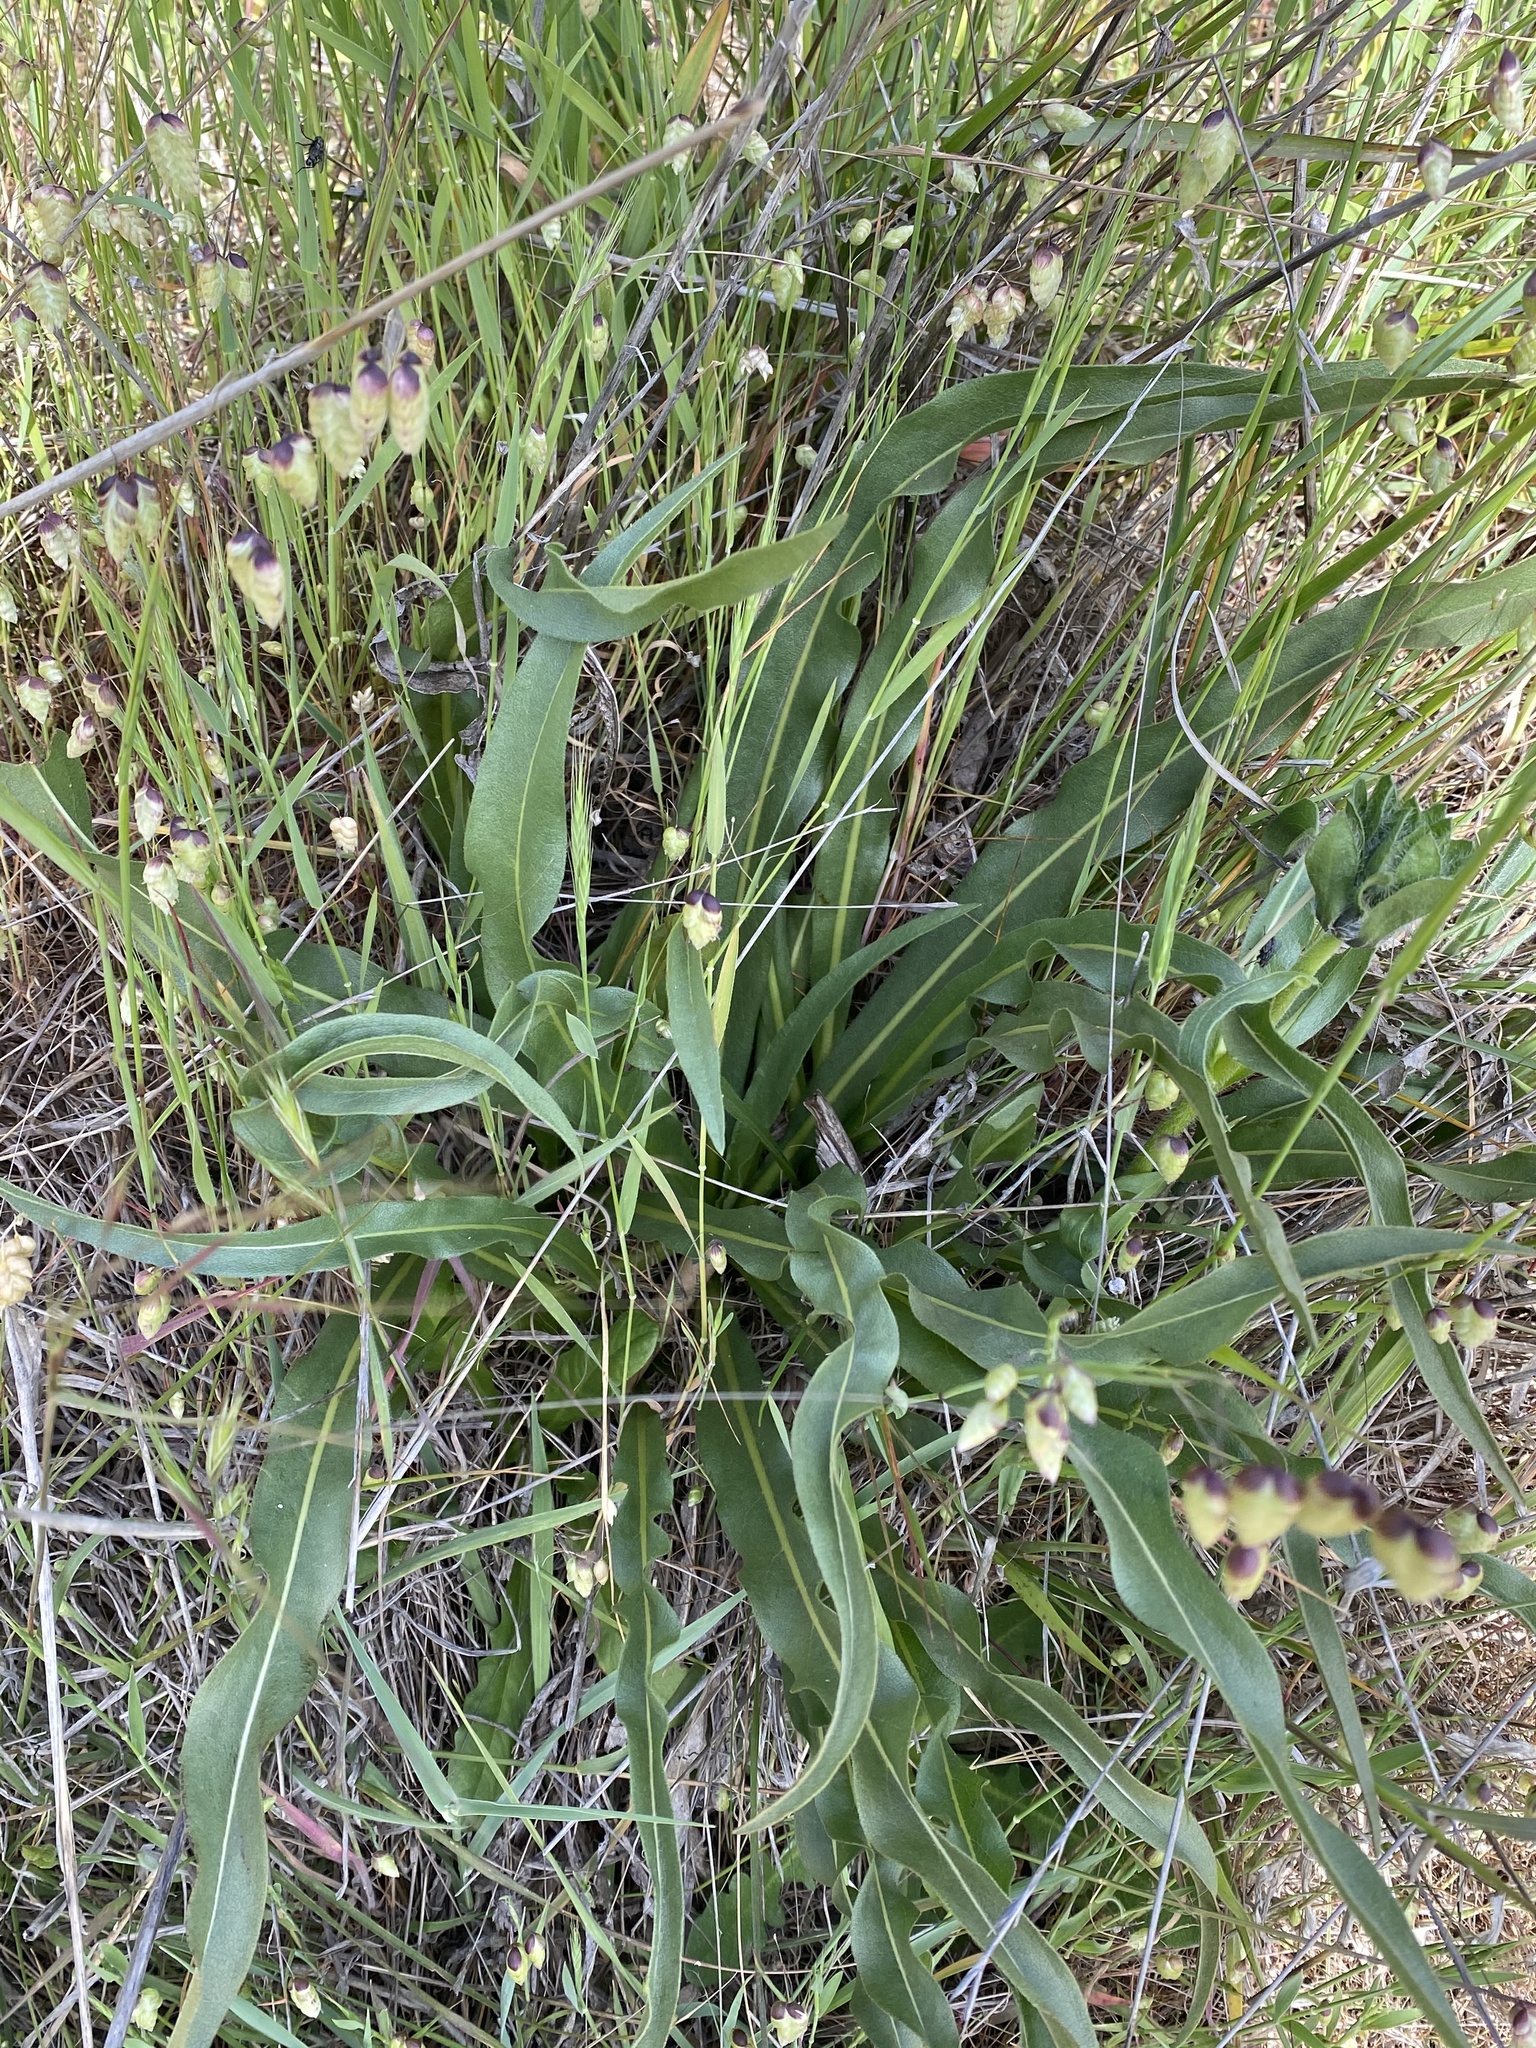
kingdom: Plantae
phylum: Tracheophyta
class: Liliopsida
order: Asparagales
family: Asparagaceae
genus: Chlorogalum
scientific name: Chlorogalum pomeridianum
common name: Amole
